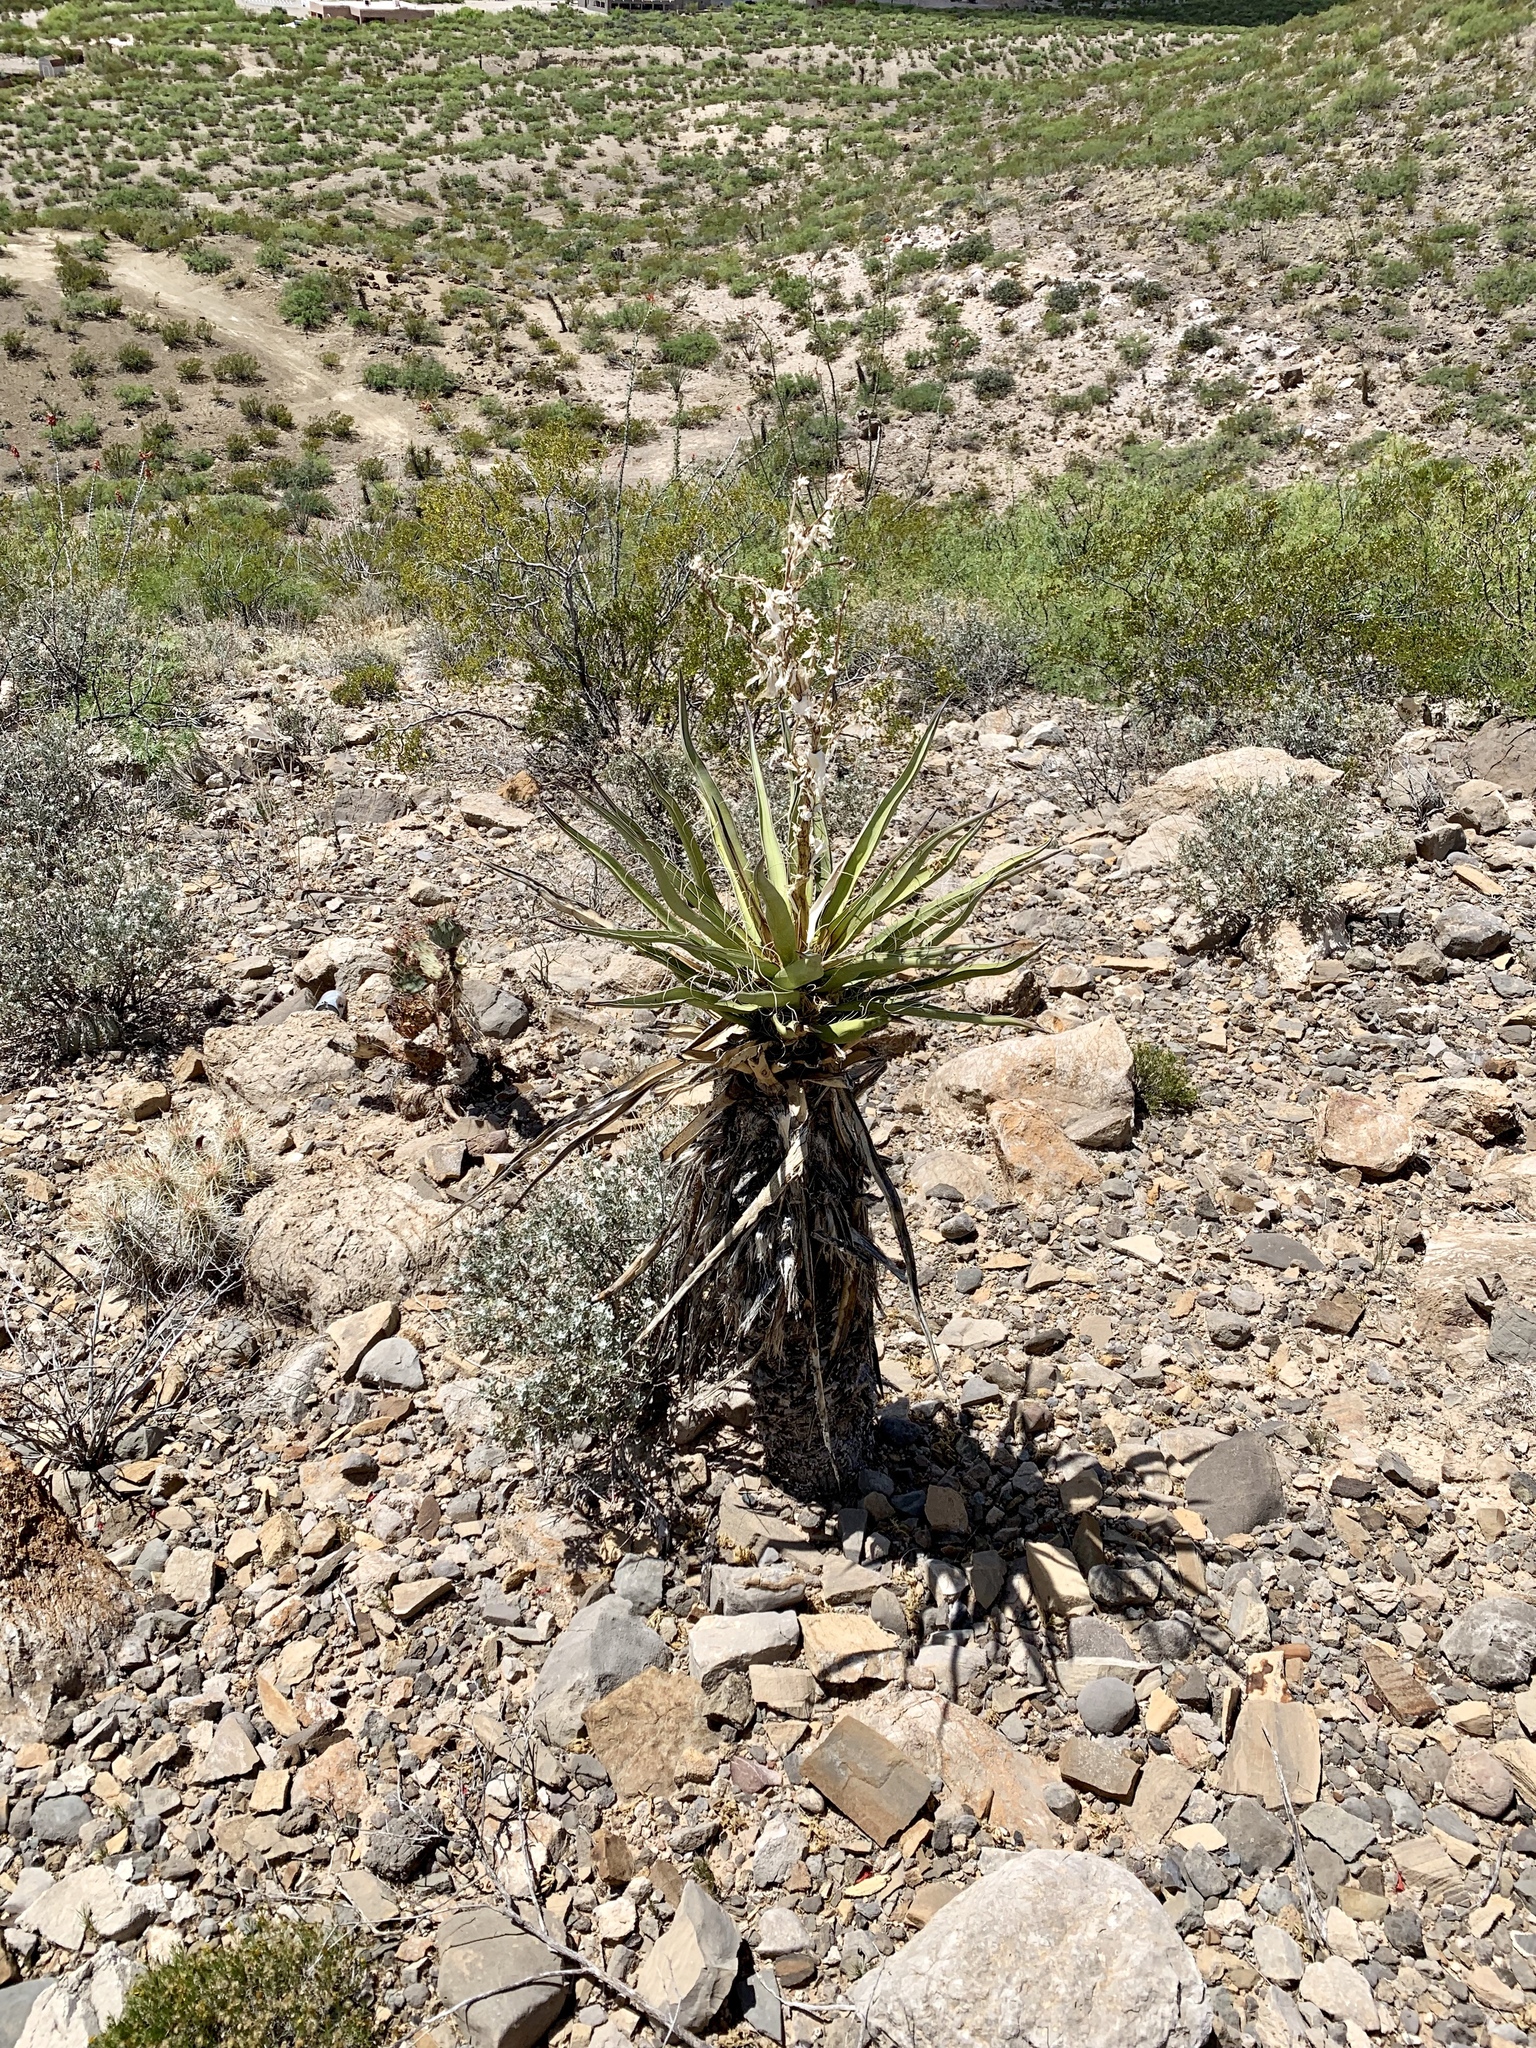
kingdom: Plantae
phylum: Tracheophyta
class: Liliopsida
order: Asparagales
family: Asparagaceae
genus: Yucca
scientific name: Yucca treculiana
